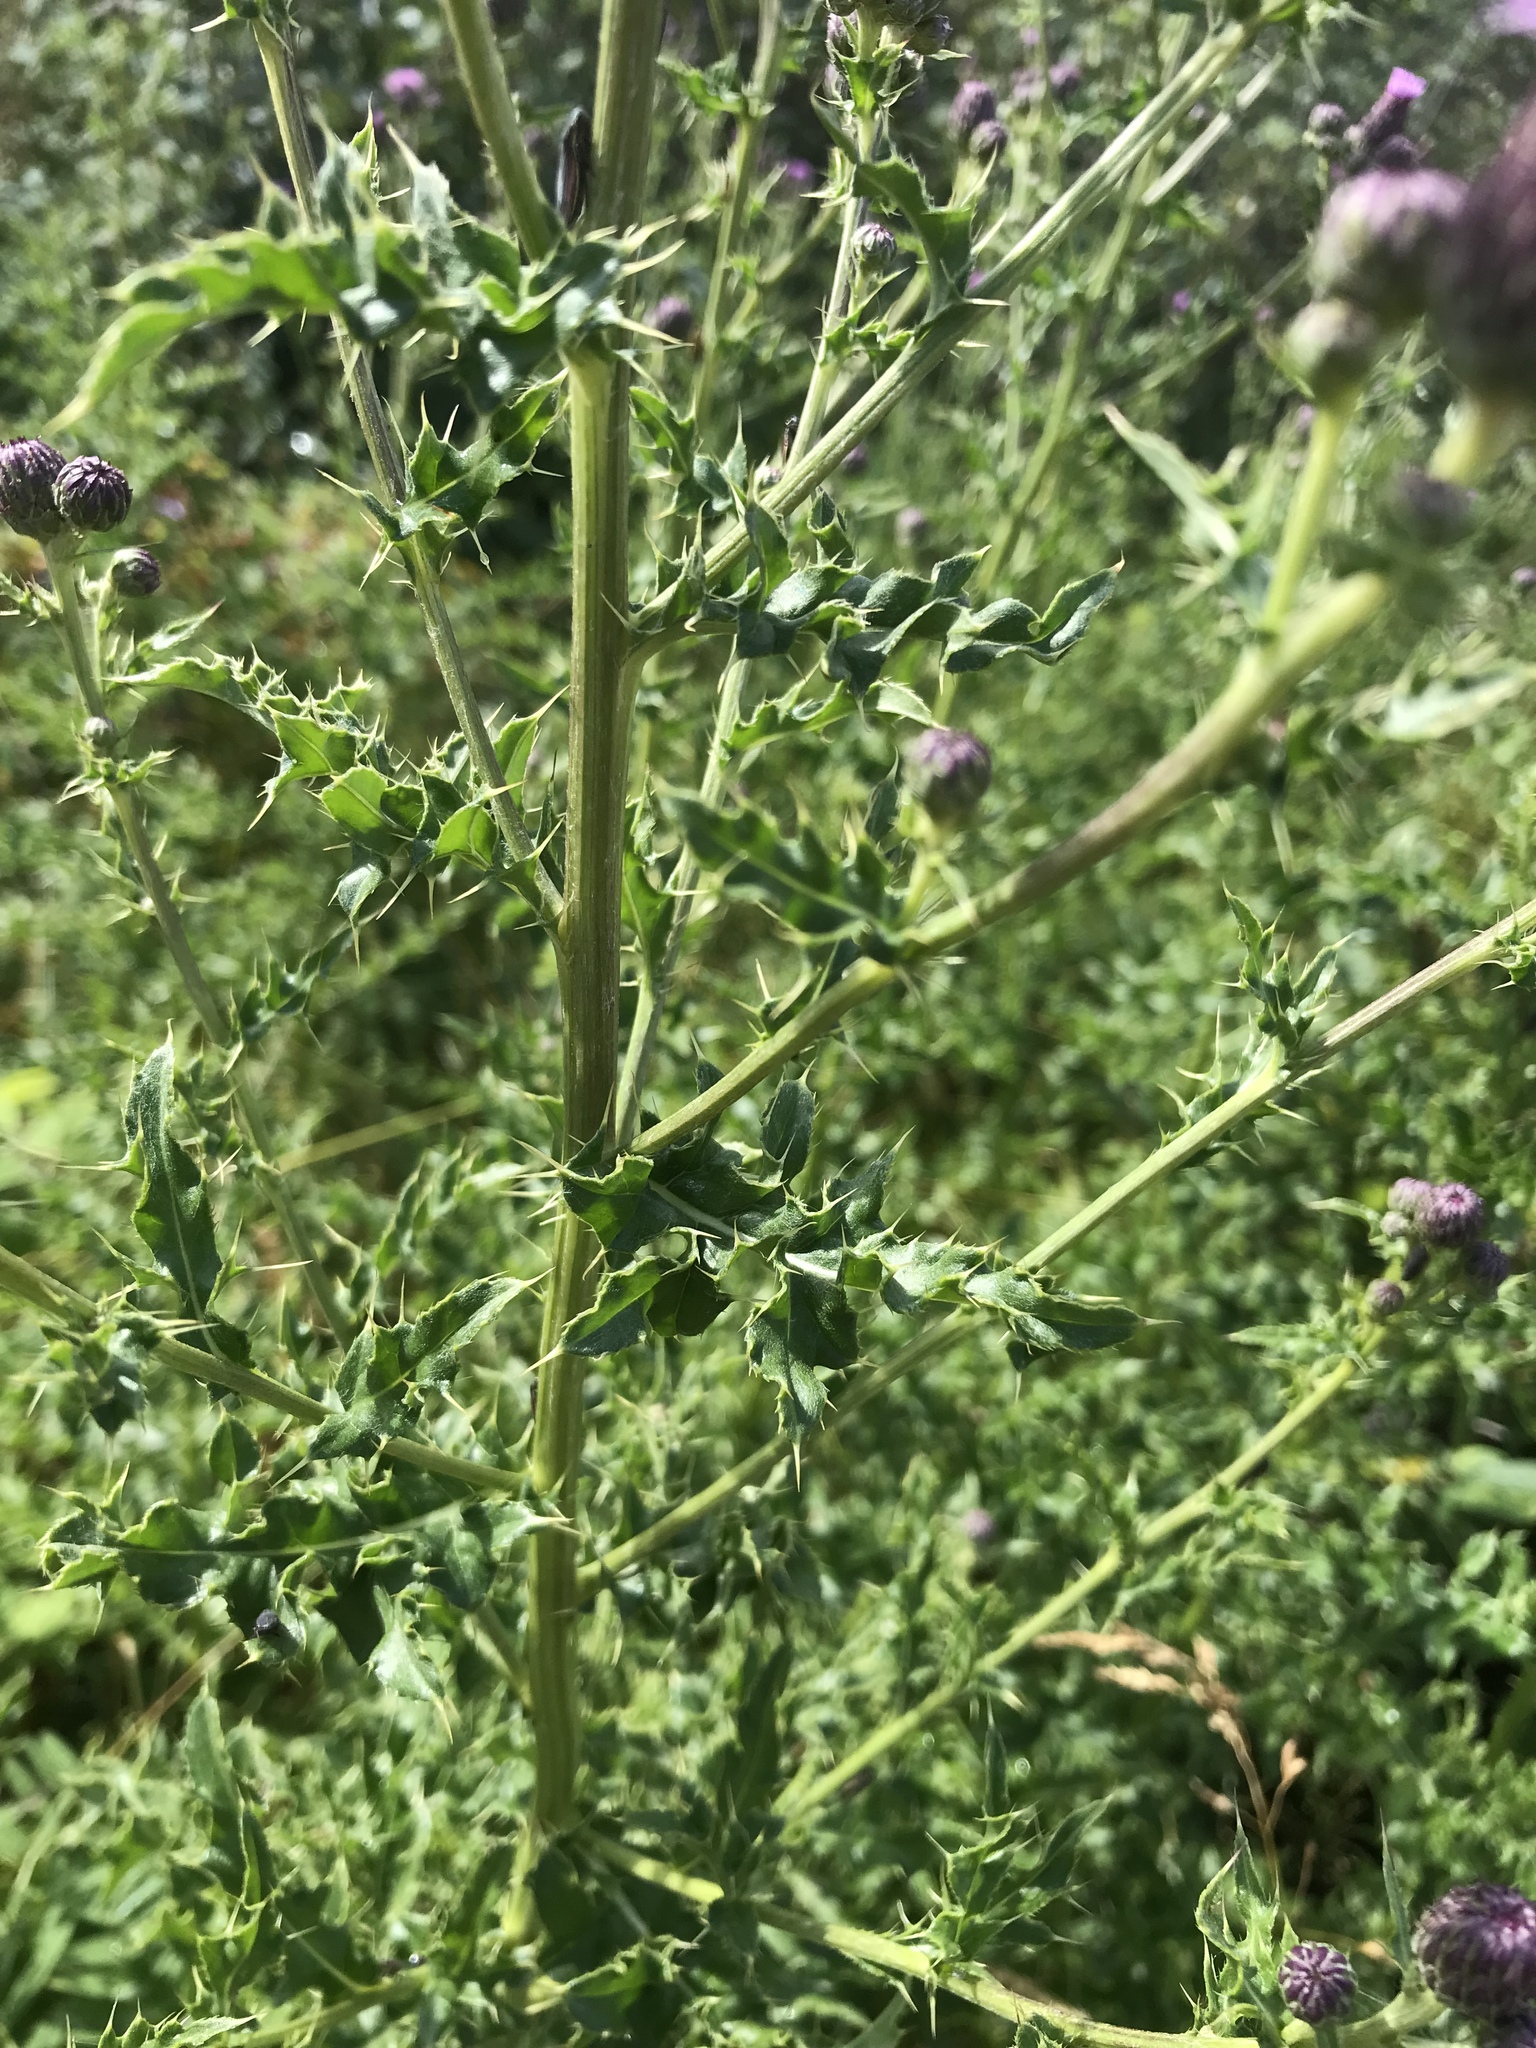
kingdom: Plantae
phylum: Tracheophyta
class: Magnoliopsida
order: Asterales
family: Asteraceae
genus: Cirsium
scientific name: Cirsium arvense
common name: Creeping thistle
